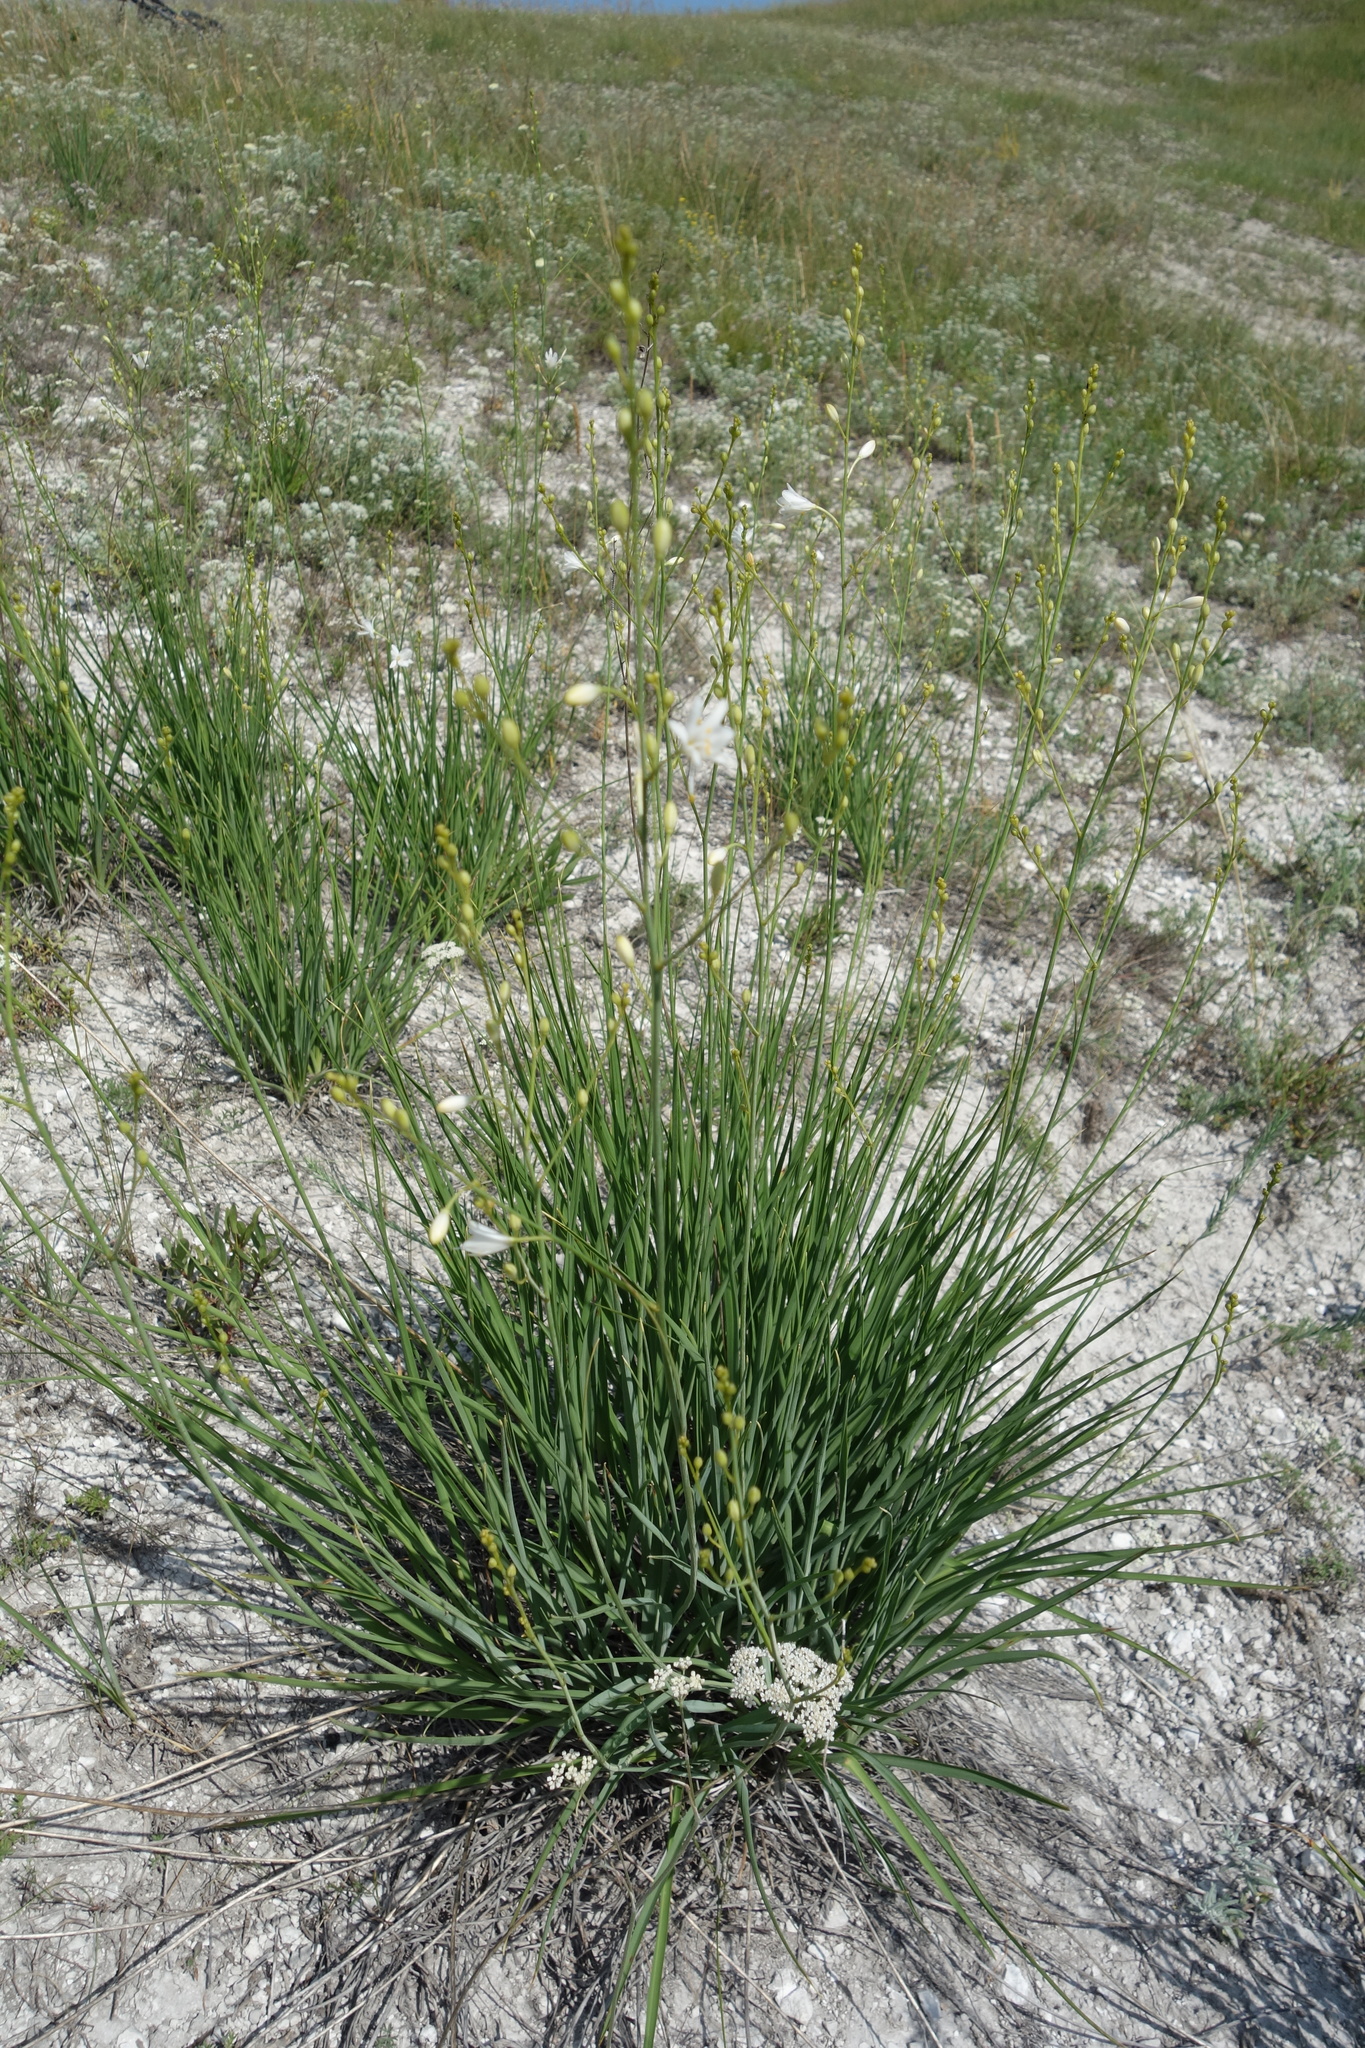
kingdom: Plantae
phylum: Tracheophyta
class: Liliopsida
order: Asparagales
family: Asparagaceae
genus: Anthericum
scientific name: Anthericum ramosum
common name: Branched st. bernard's-lily
